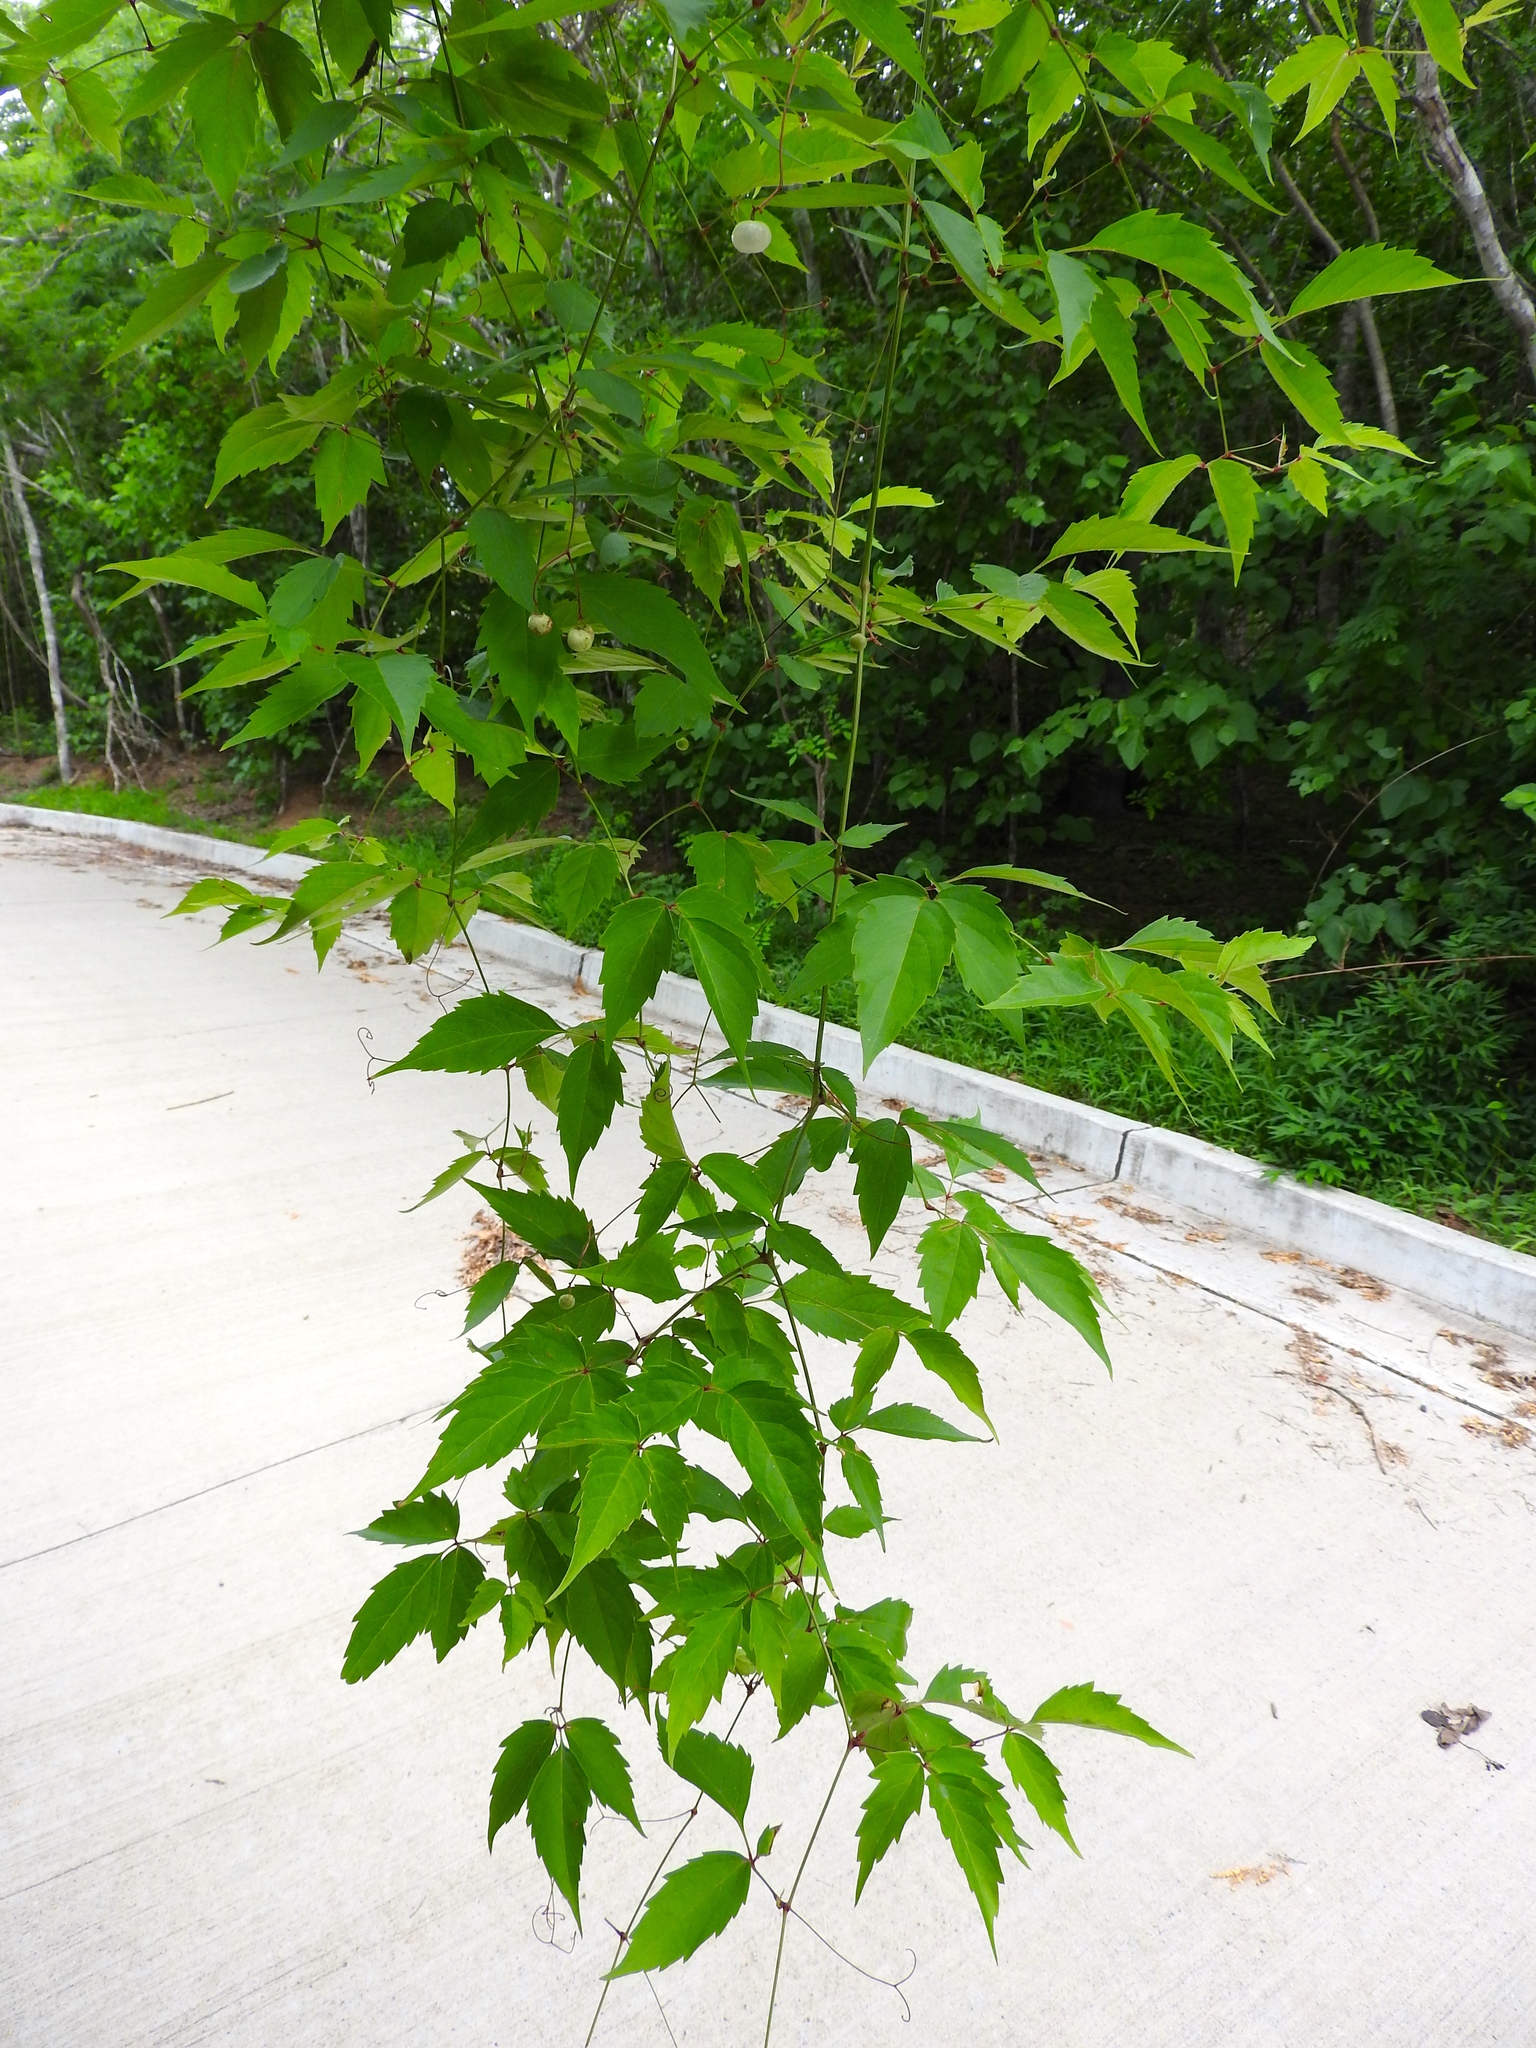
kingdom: Plantae
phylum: Tracheophyta
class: Magnoliopsida
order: Vitales
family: Vitaceae
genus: Ampelopsis
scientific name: Ampelopsis denudata
